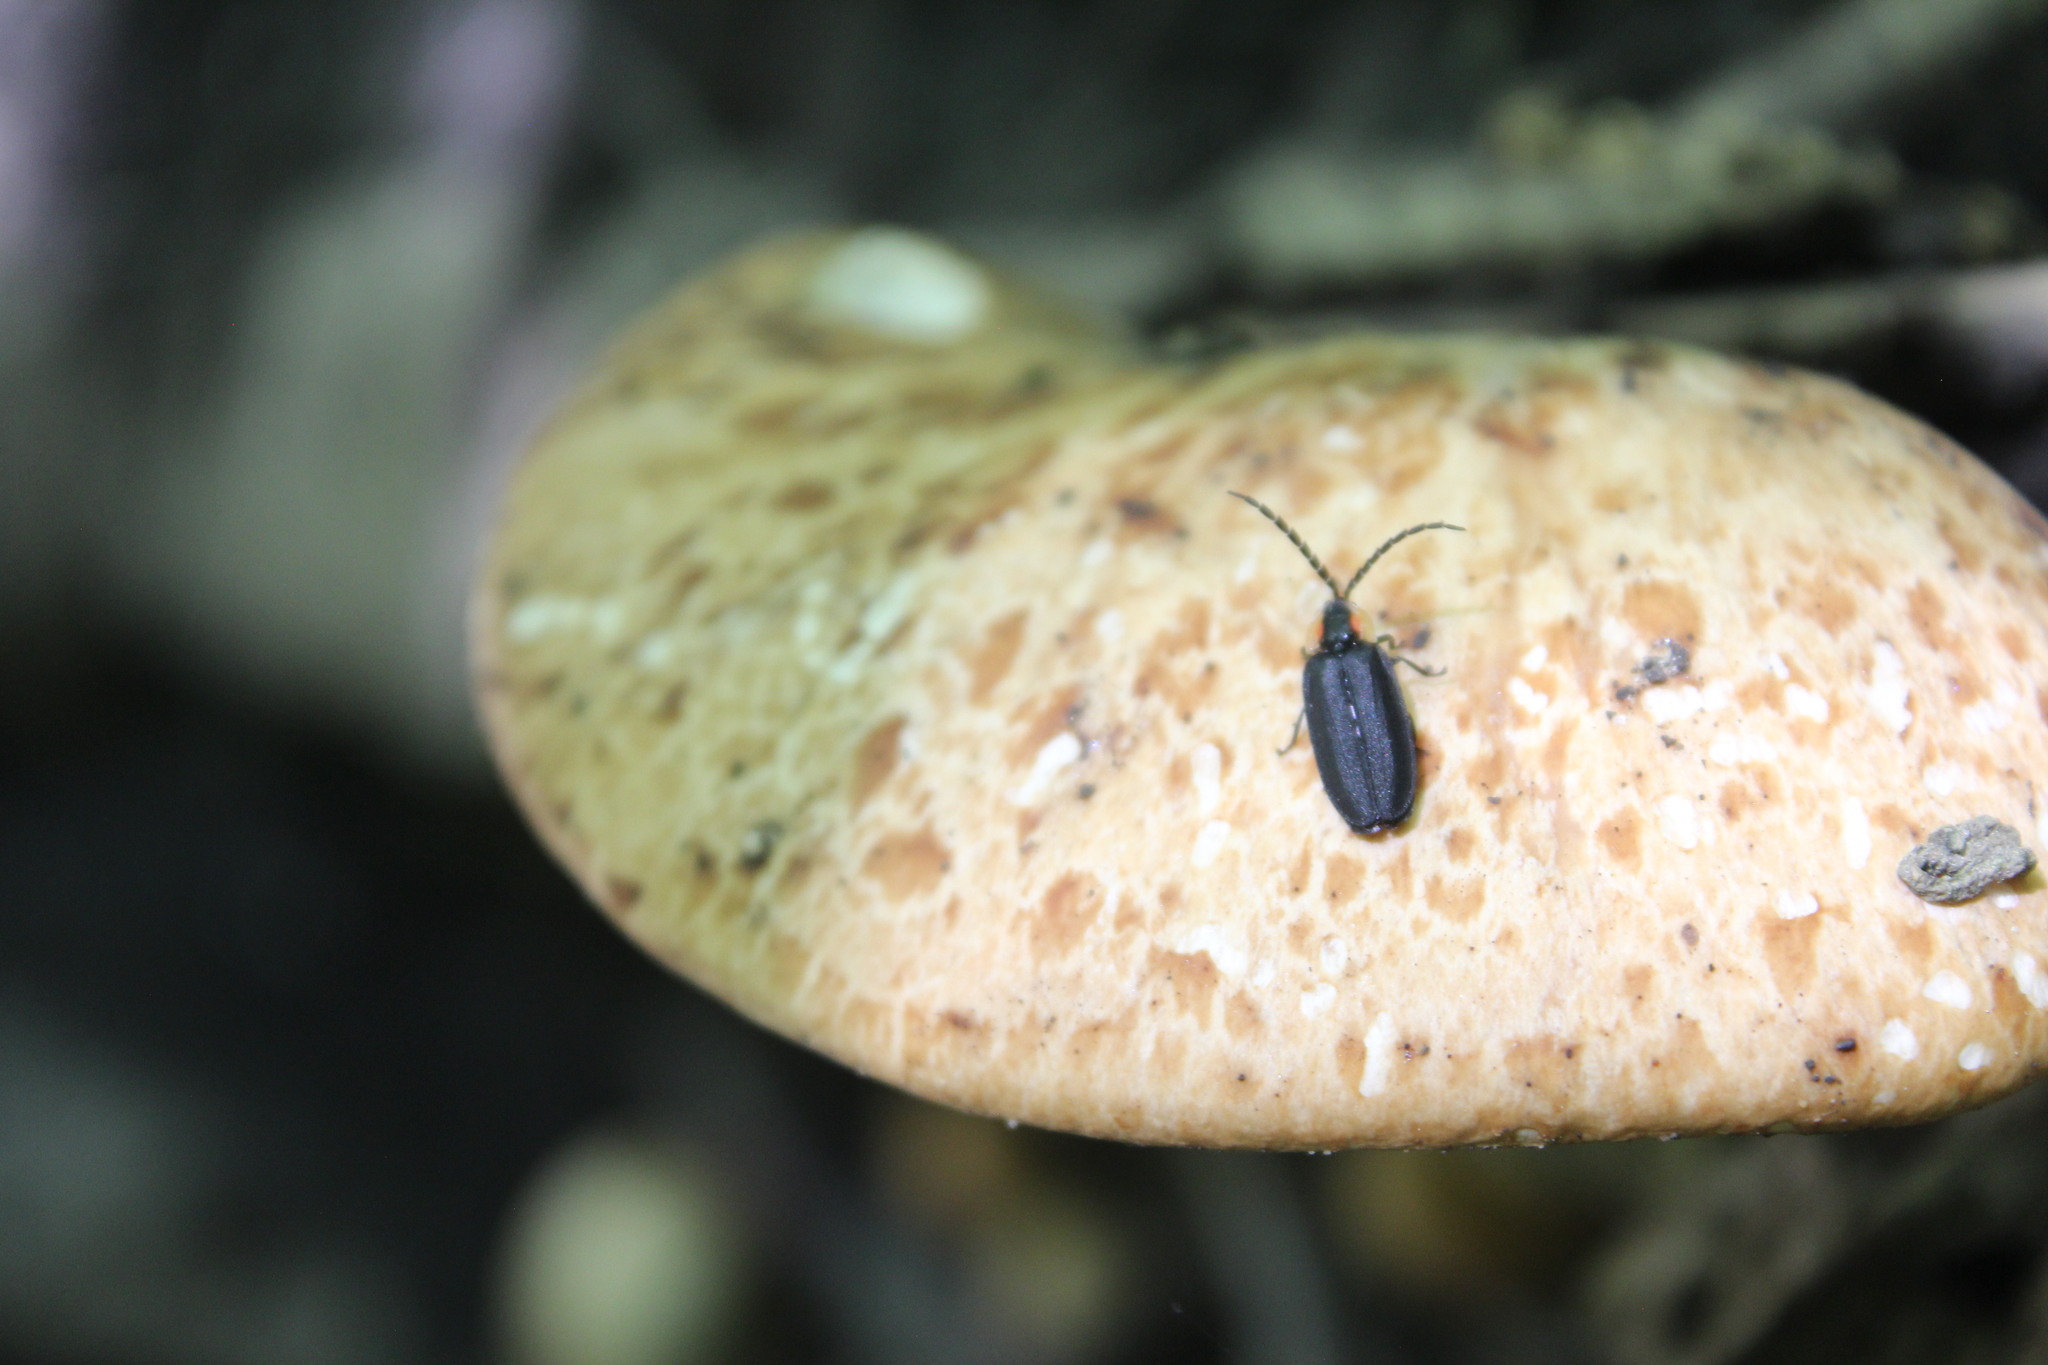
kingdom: Animalia
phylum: Arthropoda
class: Insecta
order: Coleoptera
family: Lampyridae
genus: Lucidota
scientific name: Lucidota atra
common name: Black firefly
